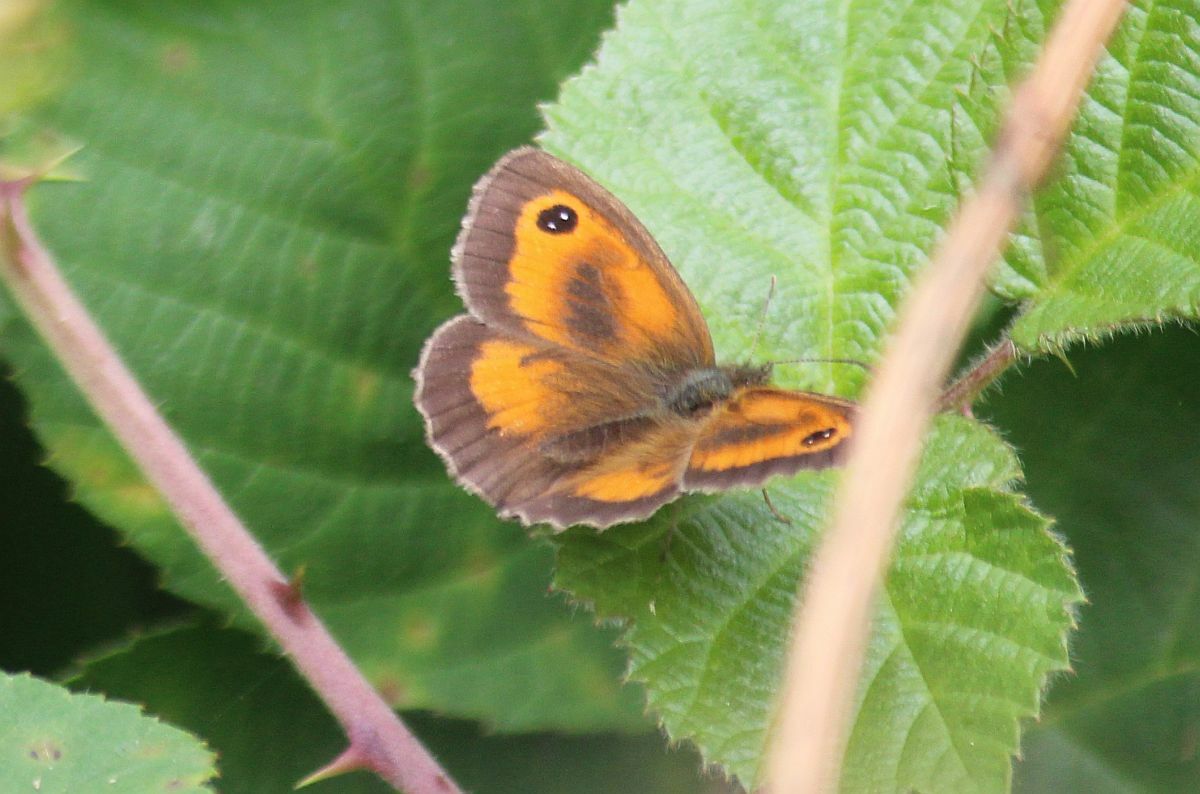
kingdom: Animalia
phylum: Arthropoda
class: Insecta
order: Lepidoptera
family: Nymphalidae
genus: Pyronia
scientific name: Pyronia tithonus
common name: Gatekeeper
